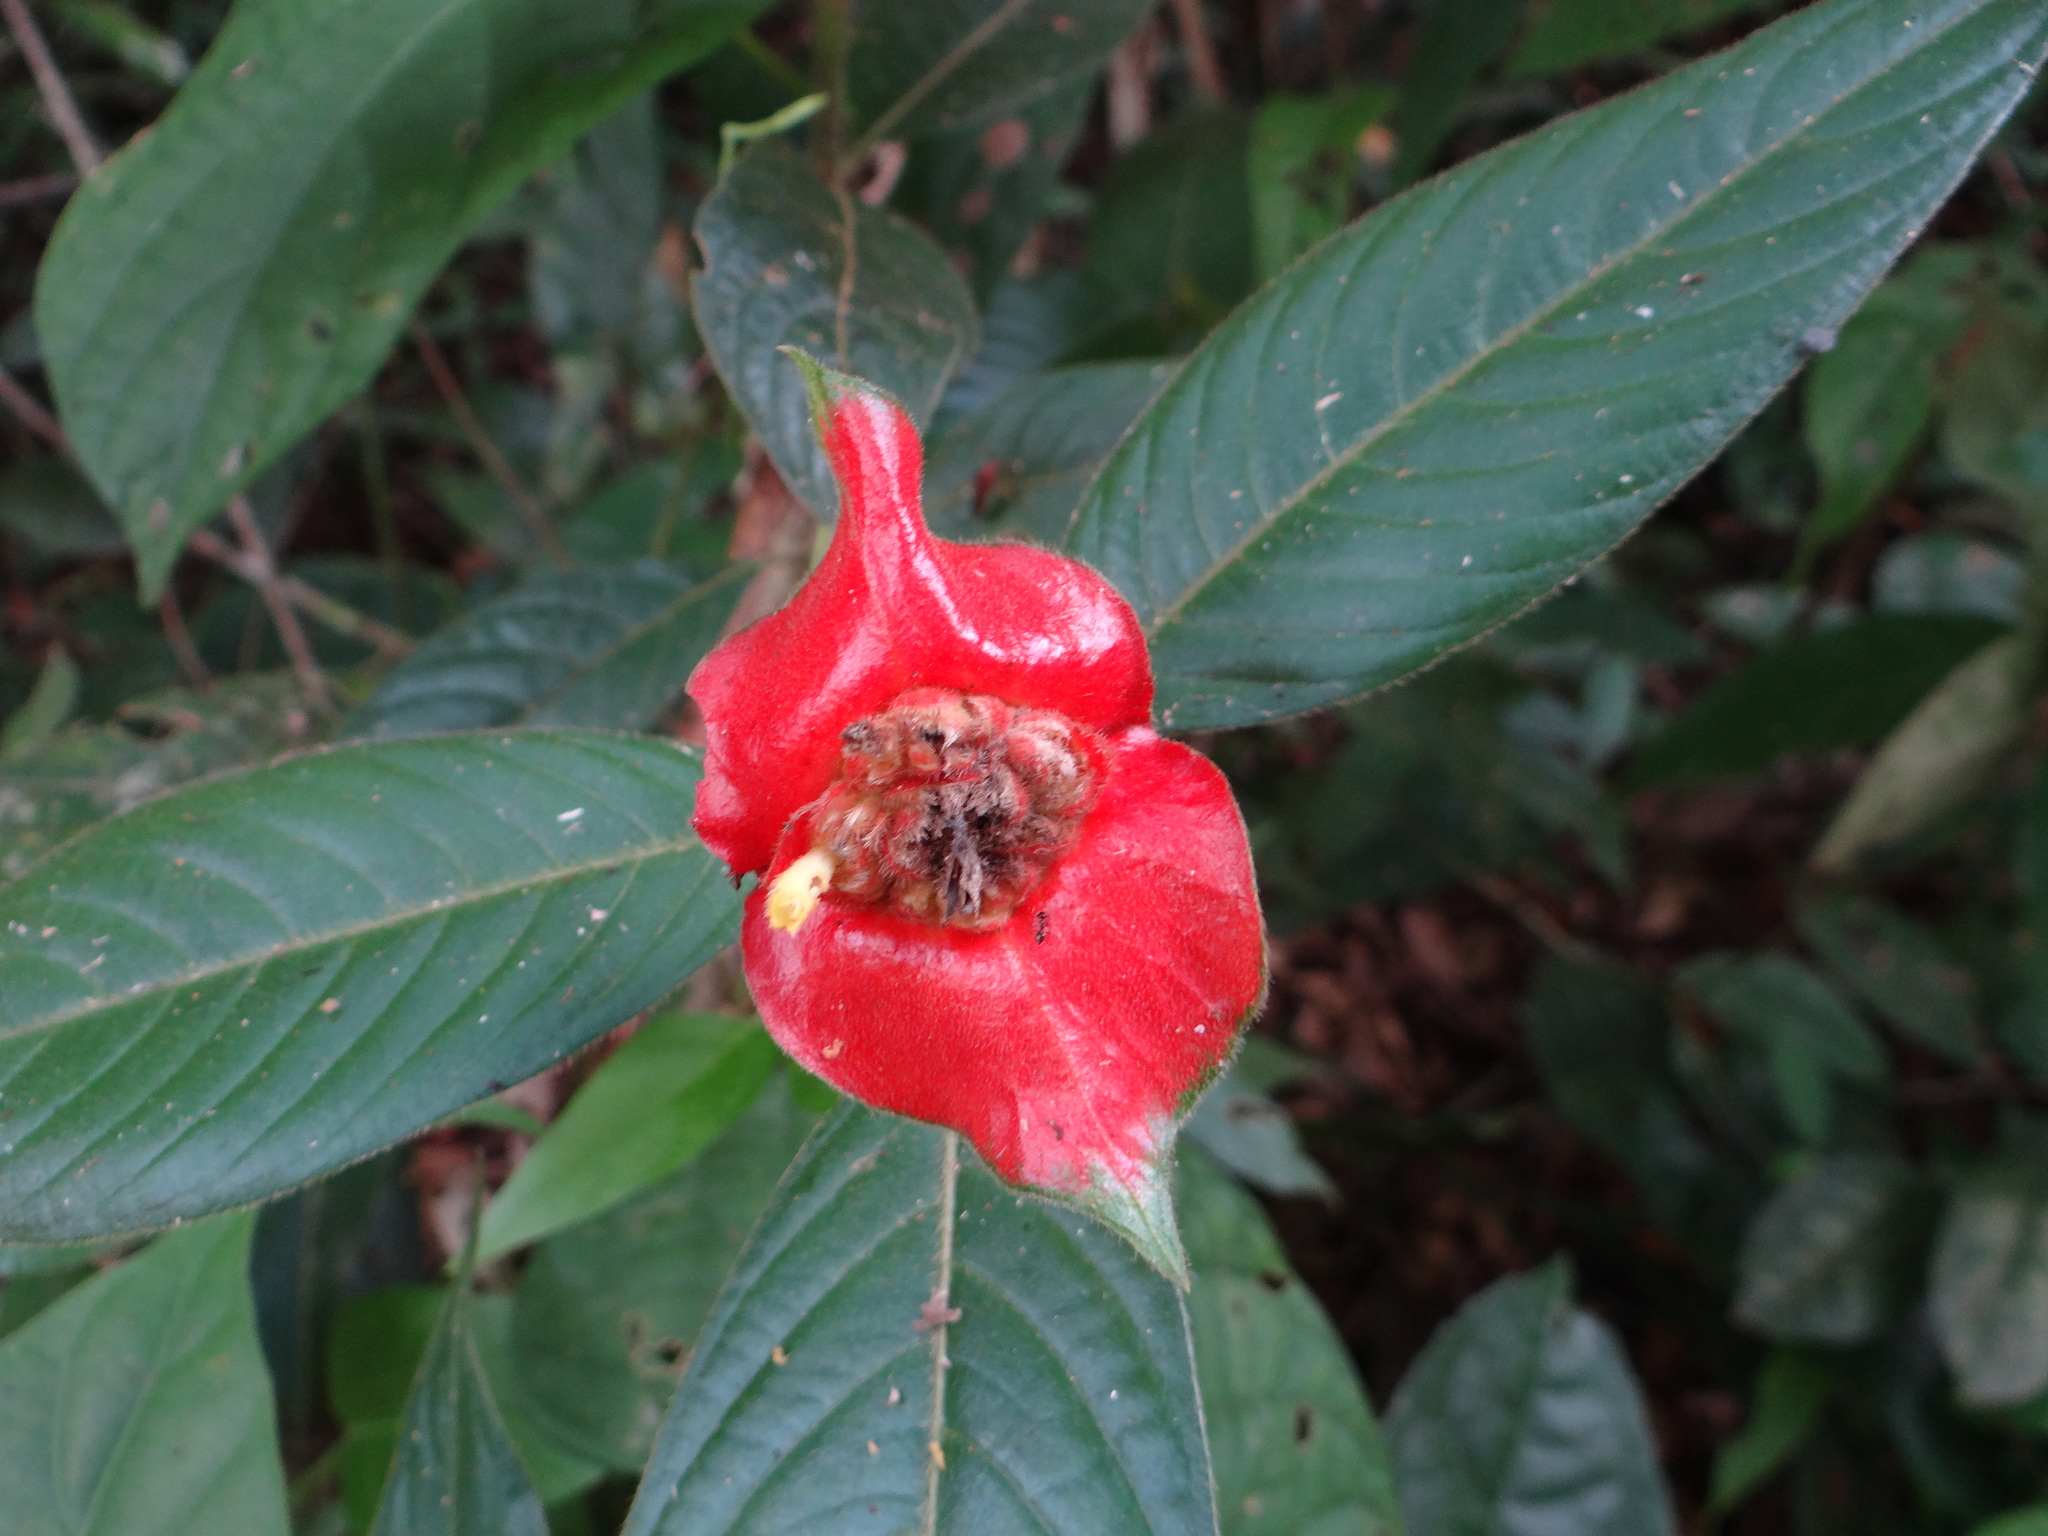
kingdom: Plantae
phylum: Tracheophyta
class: Magnoliopsida
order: Gentianales
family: Rubiaceae
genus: Palicourea
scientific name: Palicourea tomentosa
